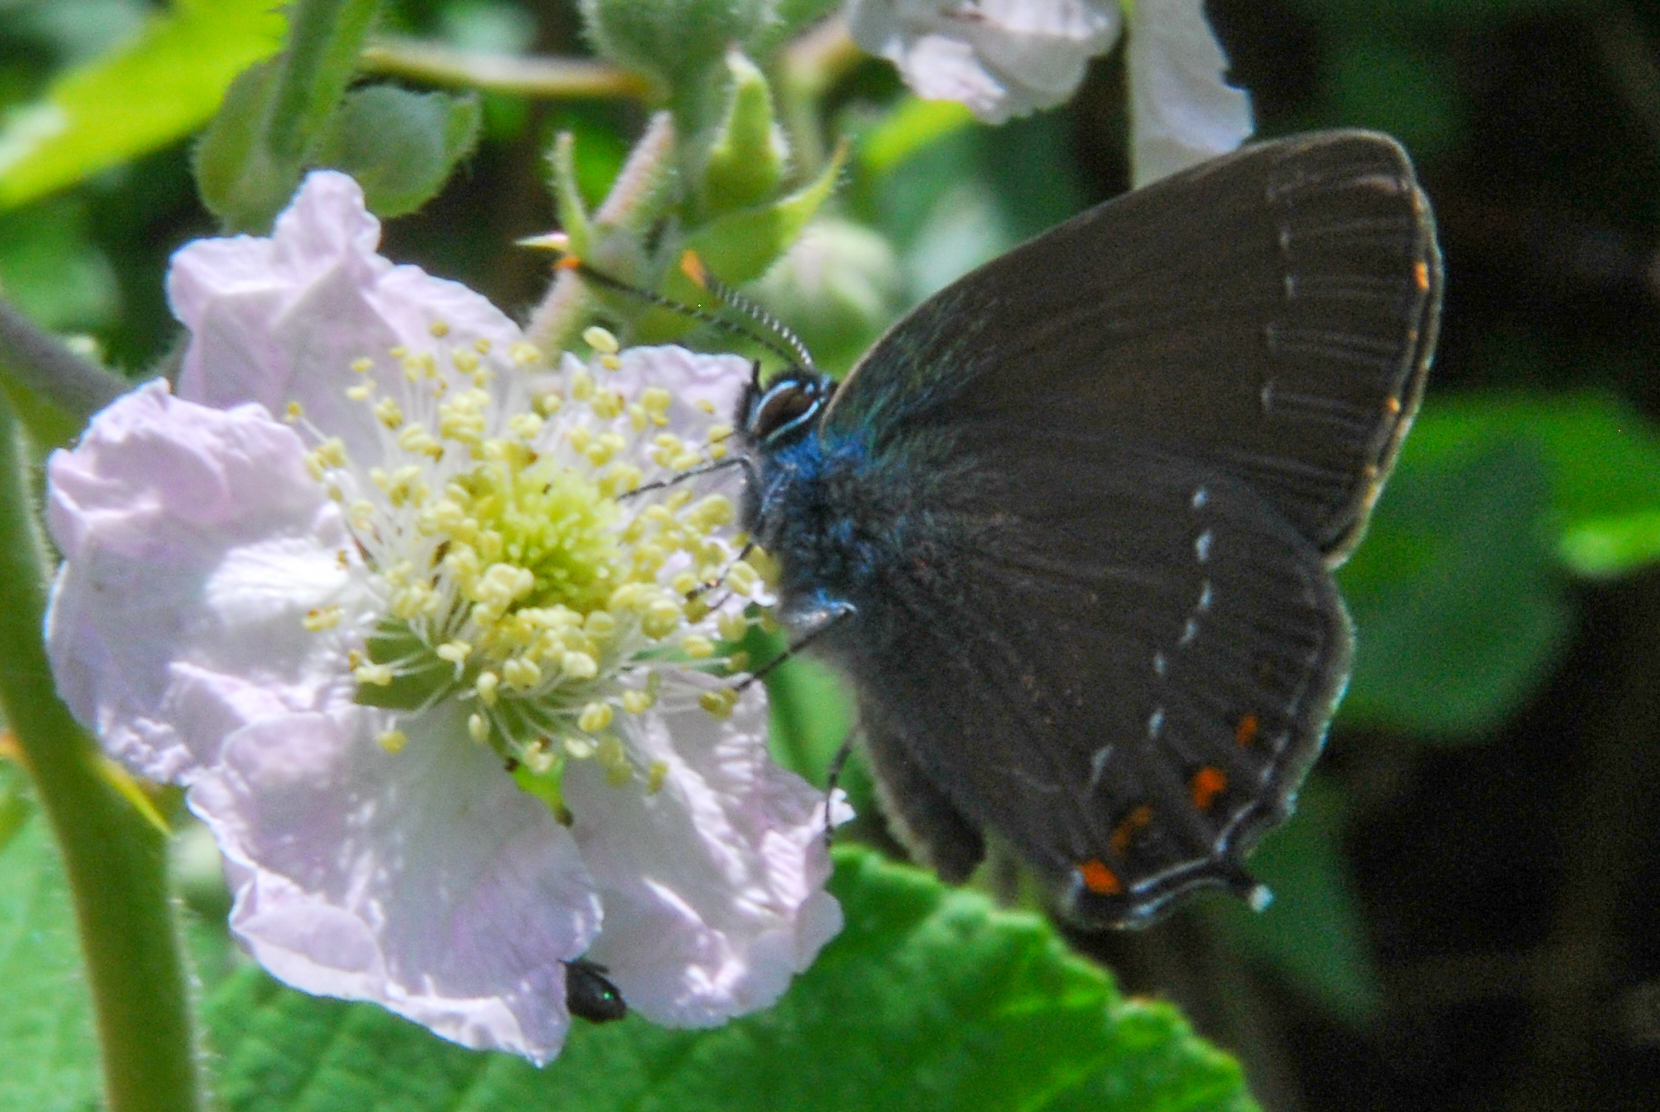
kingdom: Animalia
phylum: Arthropoda
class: Insecta
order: Lepidoptera
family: Lycaenidae
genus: Nordmannia
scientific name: Nordmannia ilicis
